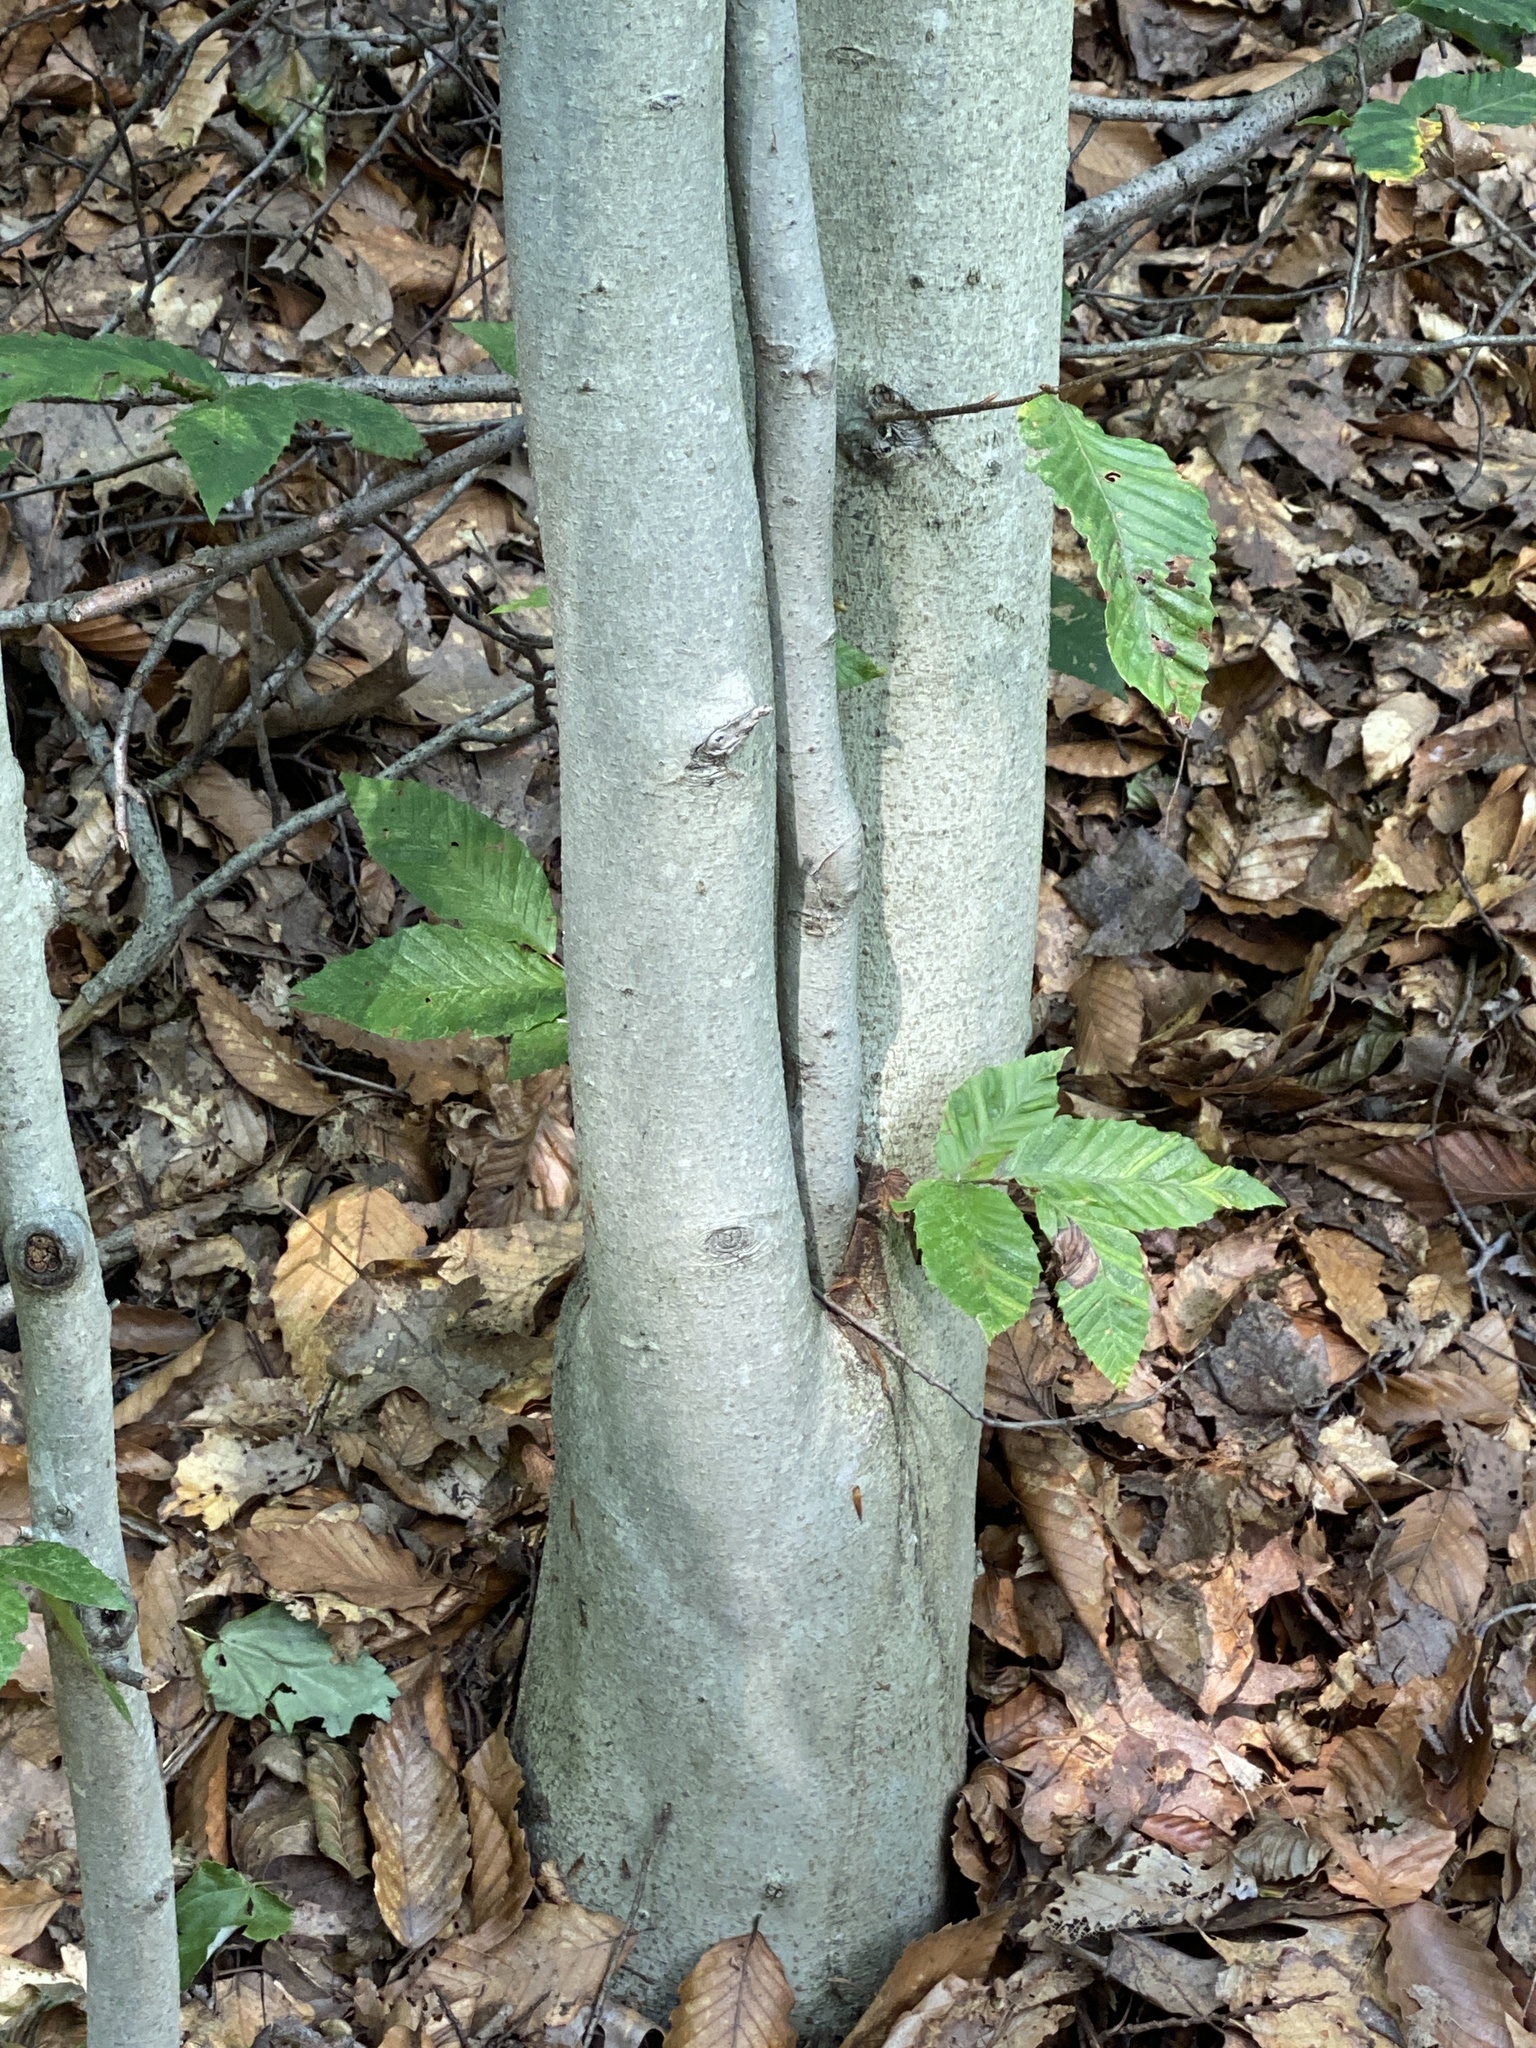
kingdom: Animalia
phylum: Nematoda
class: Chromadorea
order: Rhabditida
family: Anguinidae
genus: Litylenchus
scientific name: Litylenchus crenatae
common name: Beech leaf disease
